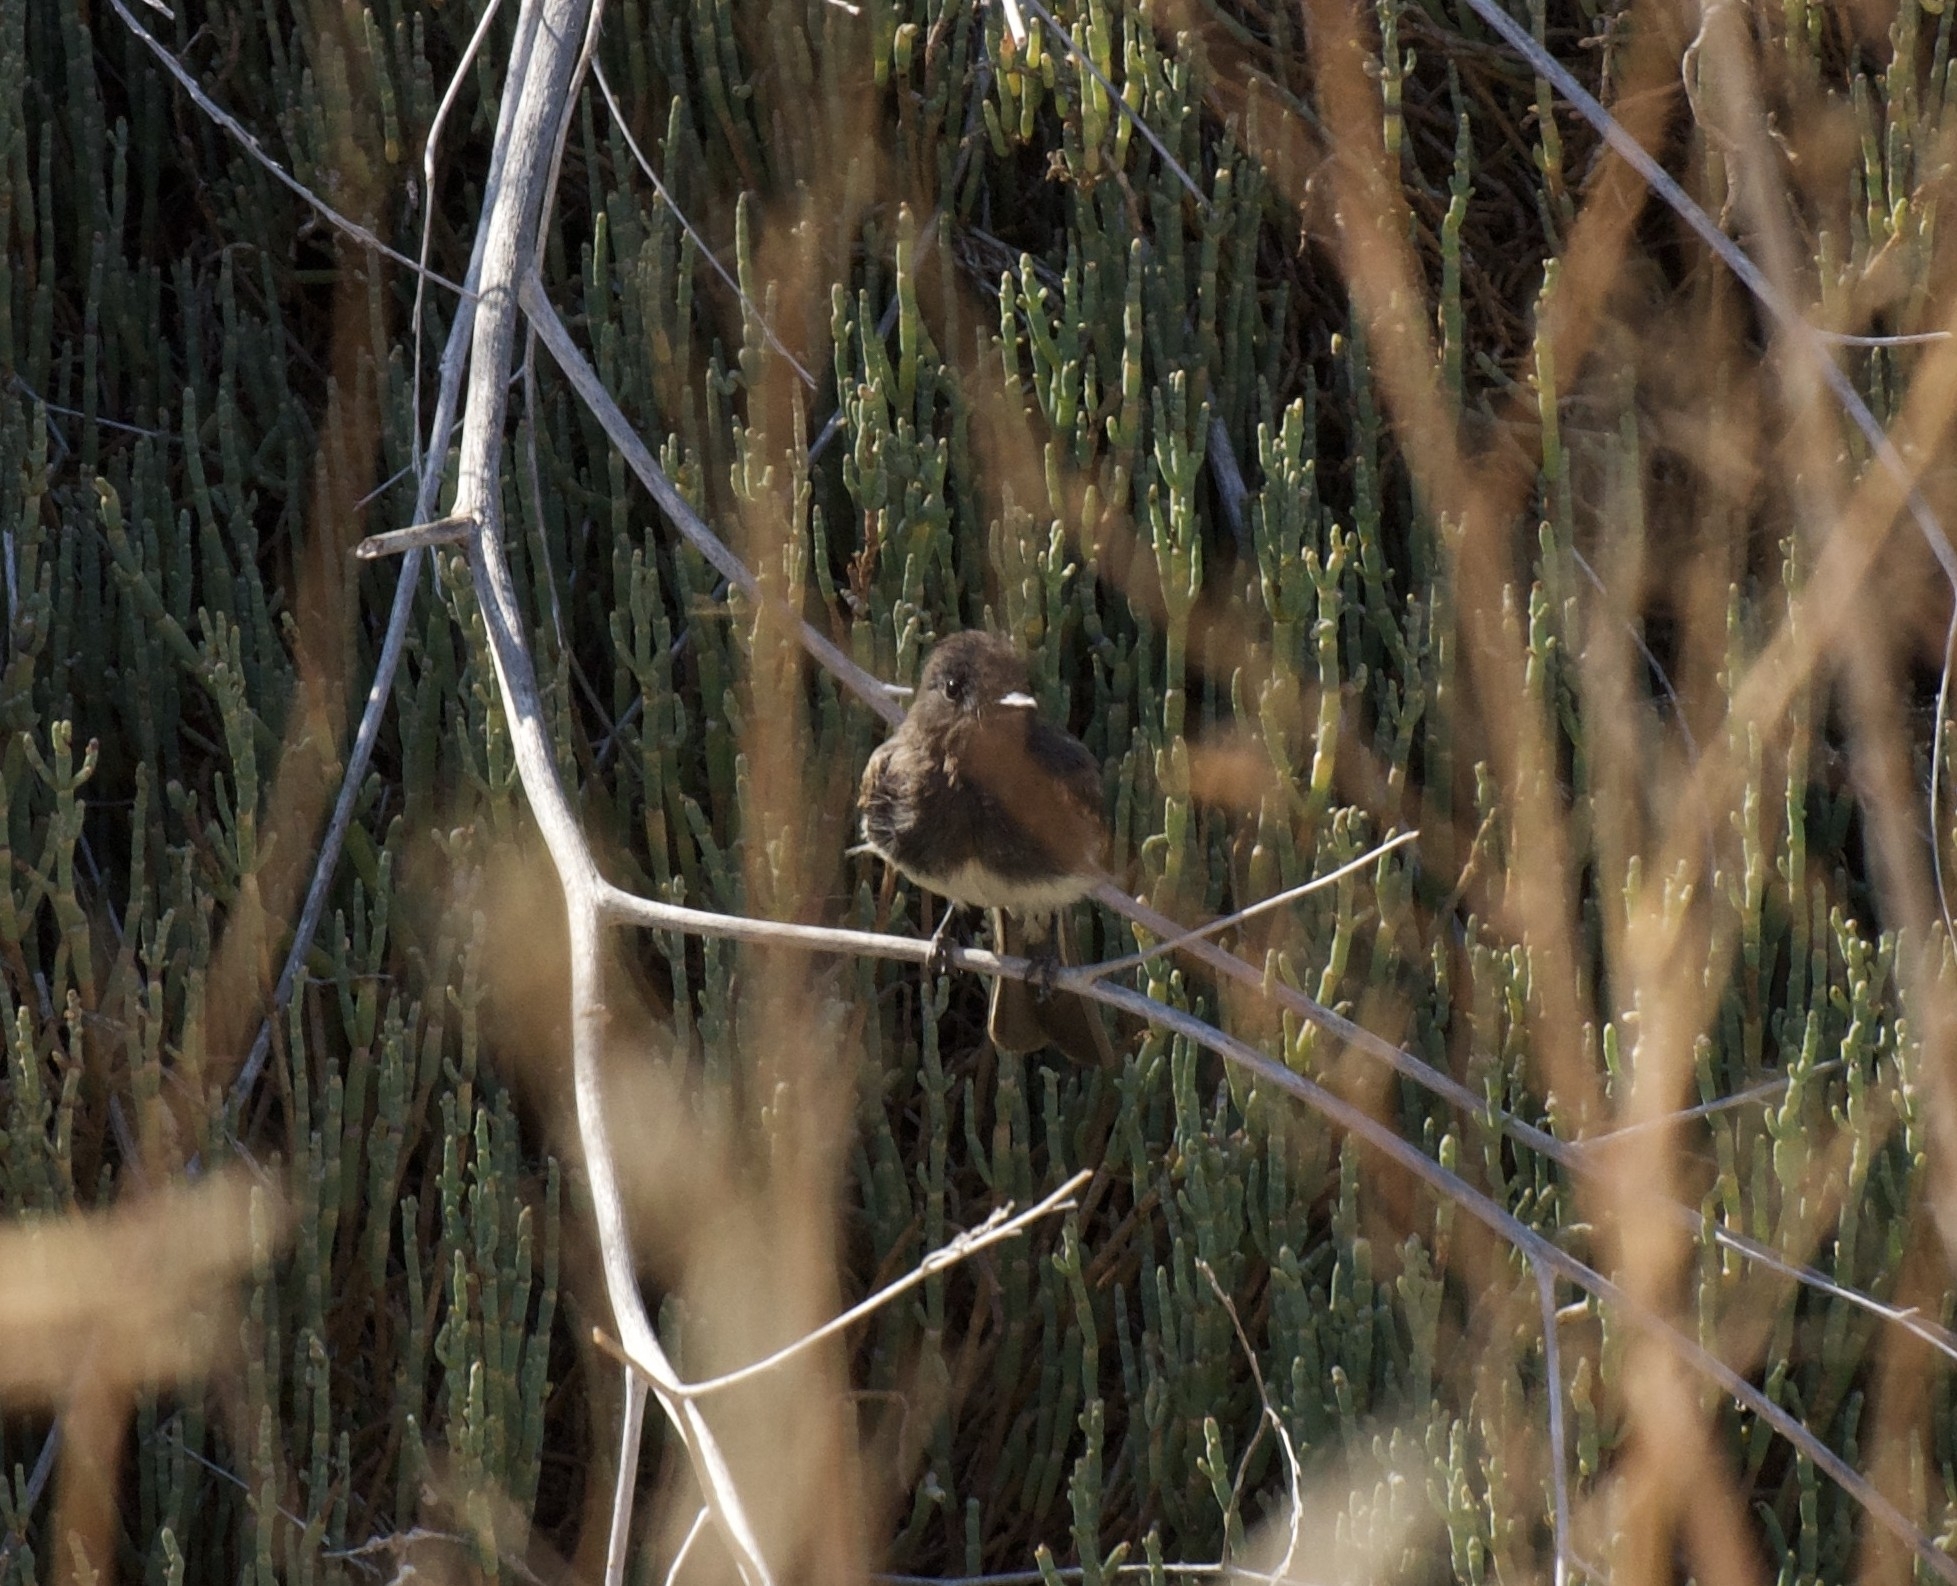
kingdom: Animalia
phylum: Chordata
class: Aves
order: Passeriformes
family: Tyrannidae
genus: Sayornis
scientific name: Sayornis nigricans
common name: Black phoebe
